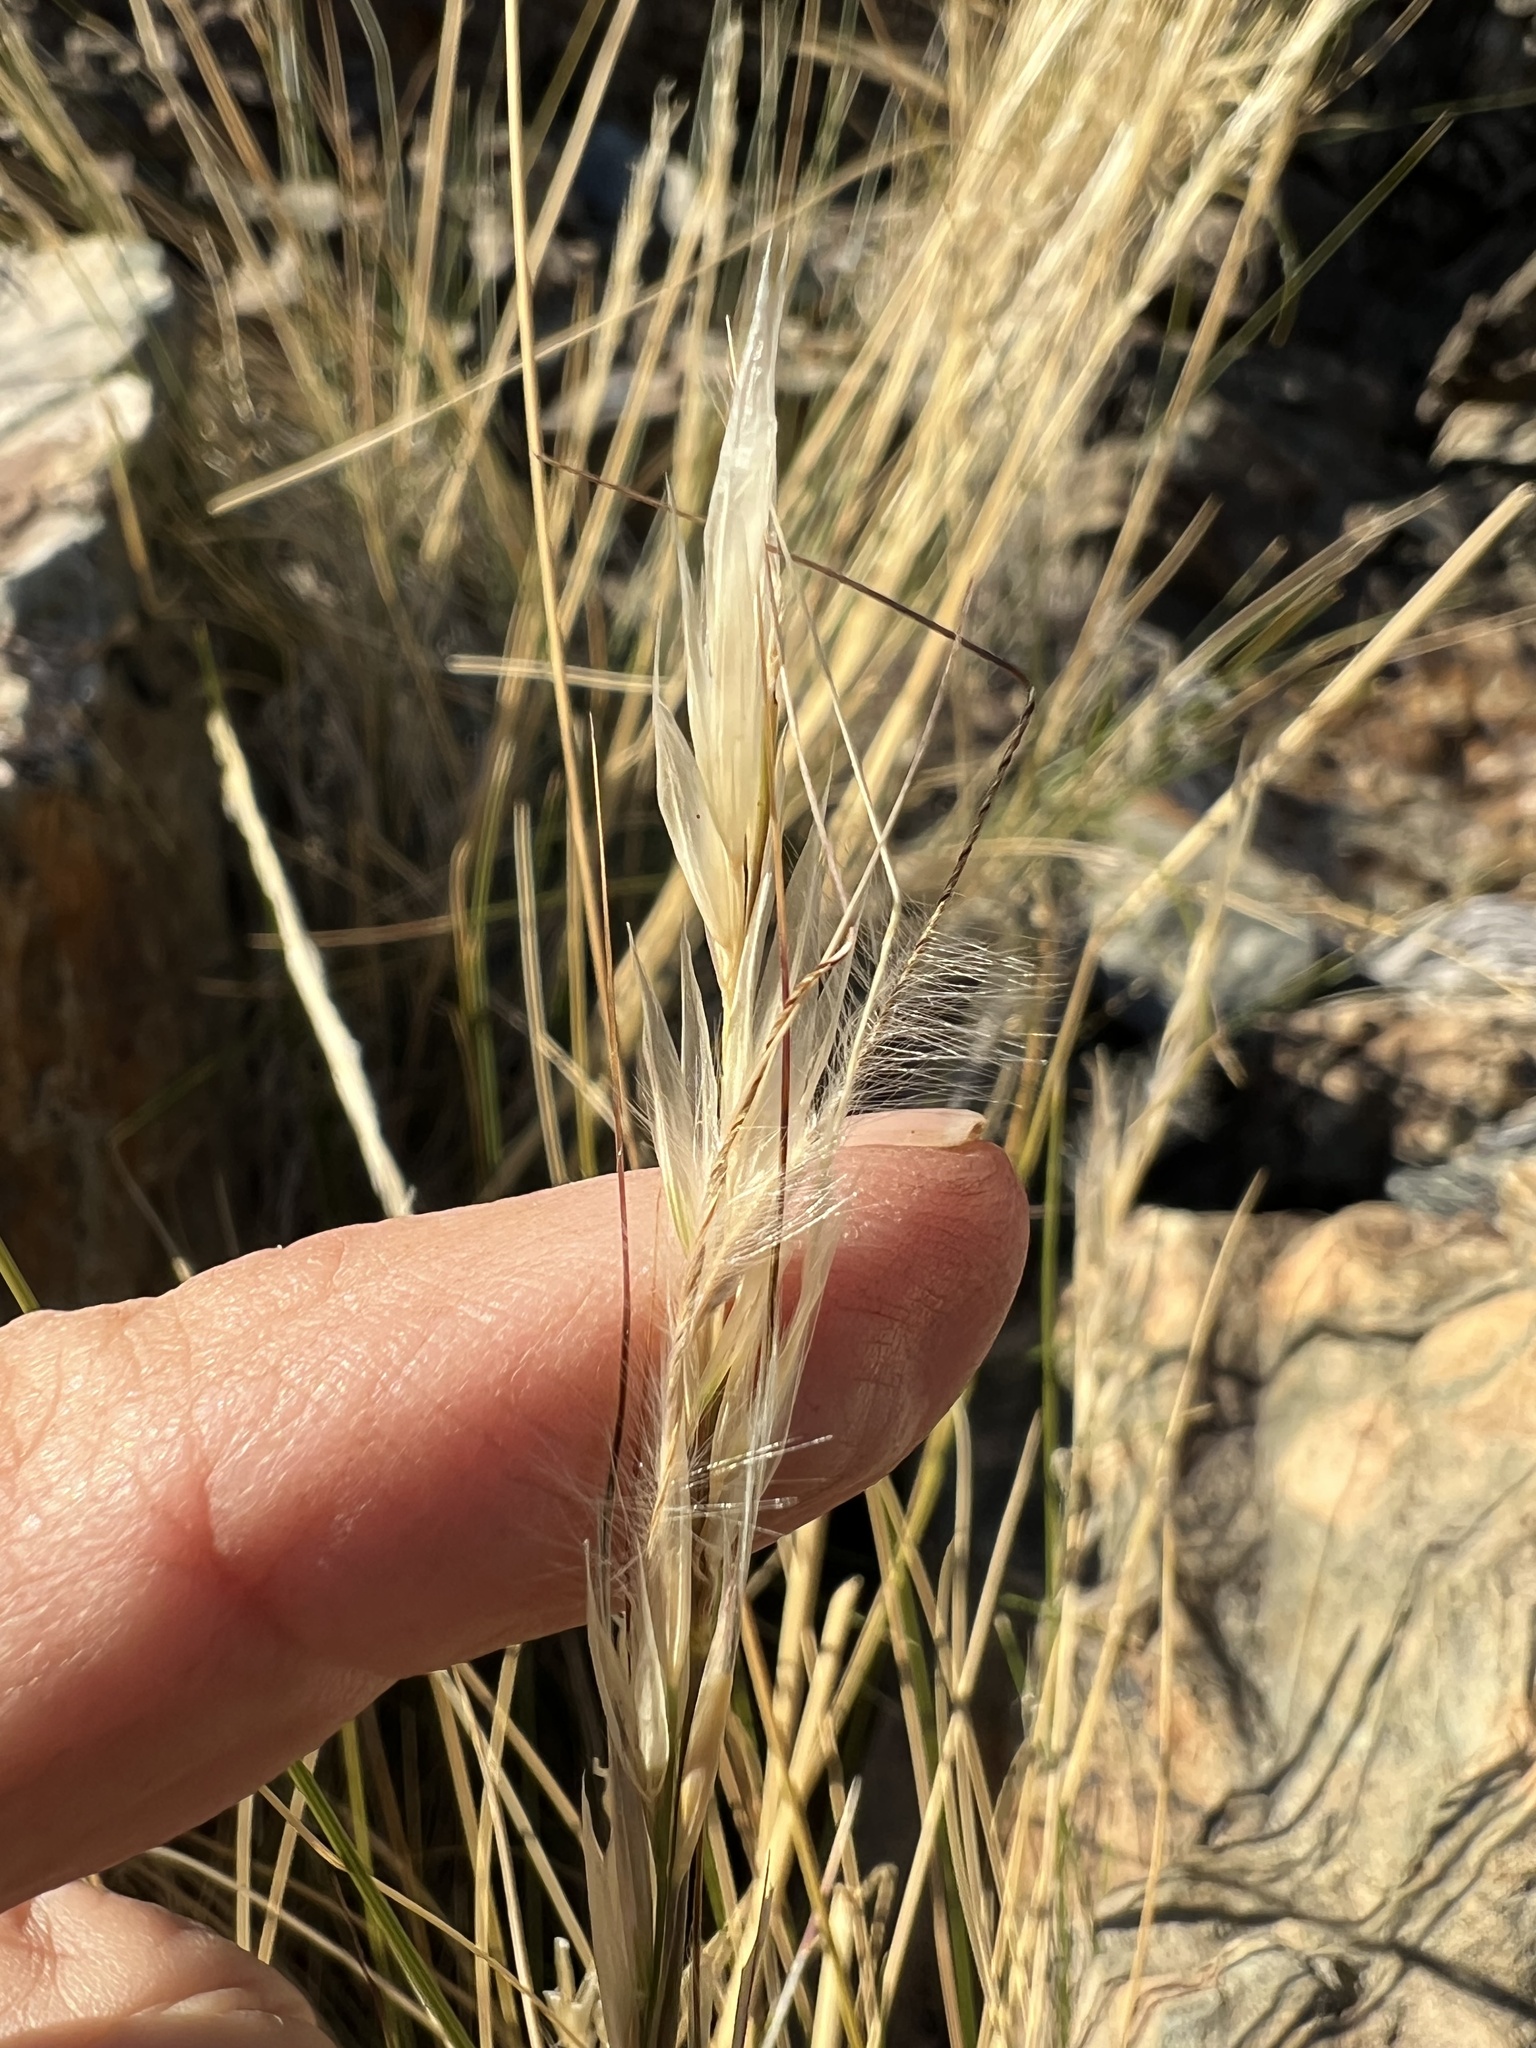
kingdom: Plantae
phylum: Tracheophyta
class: Liliopsida
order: Poales
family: Poaceae
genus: Pappostipa
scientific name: Pappostipa speciosa
